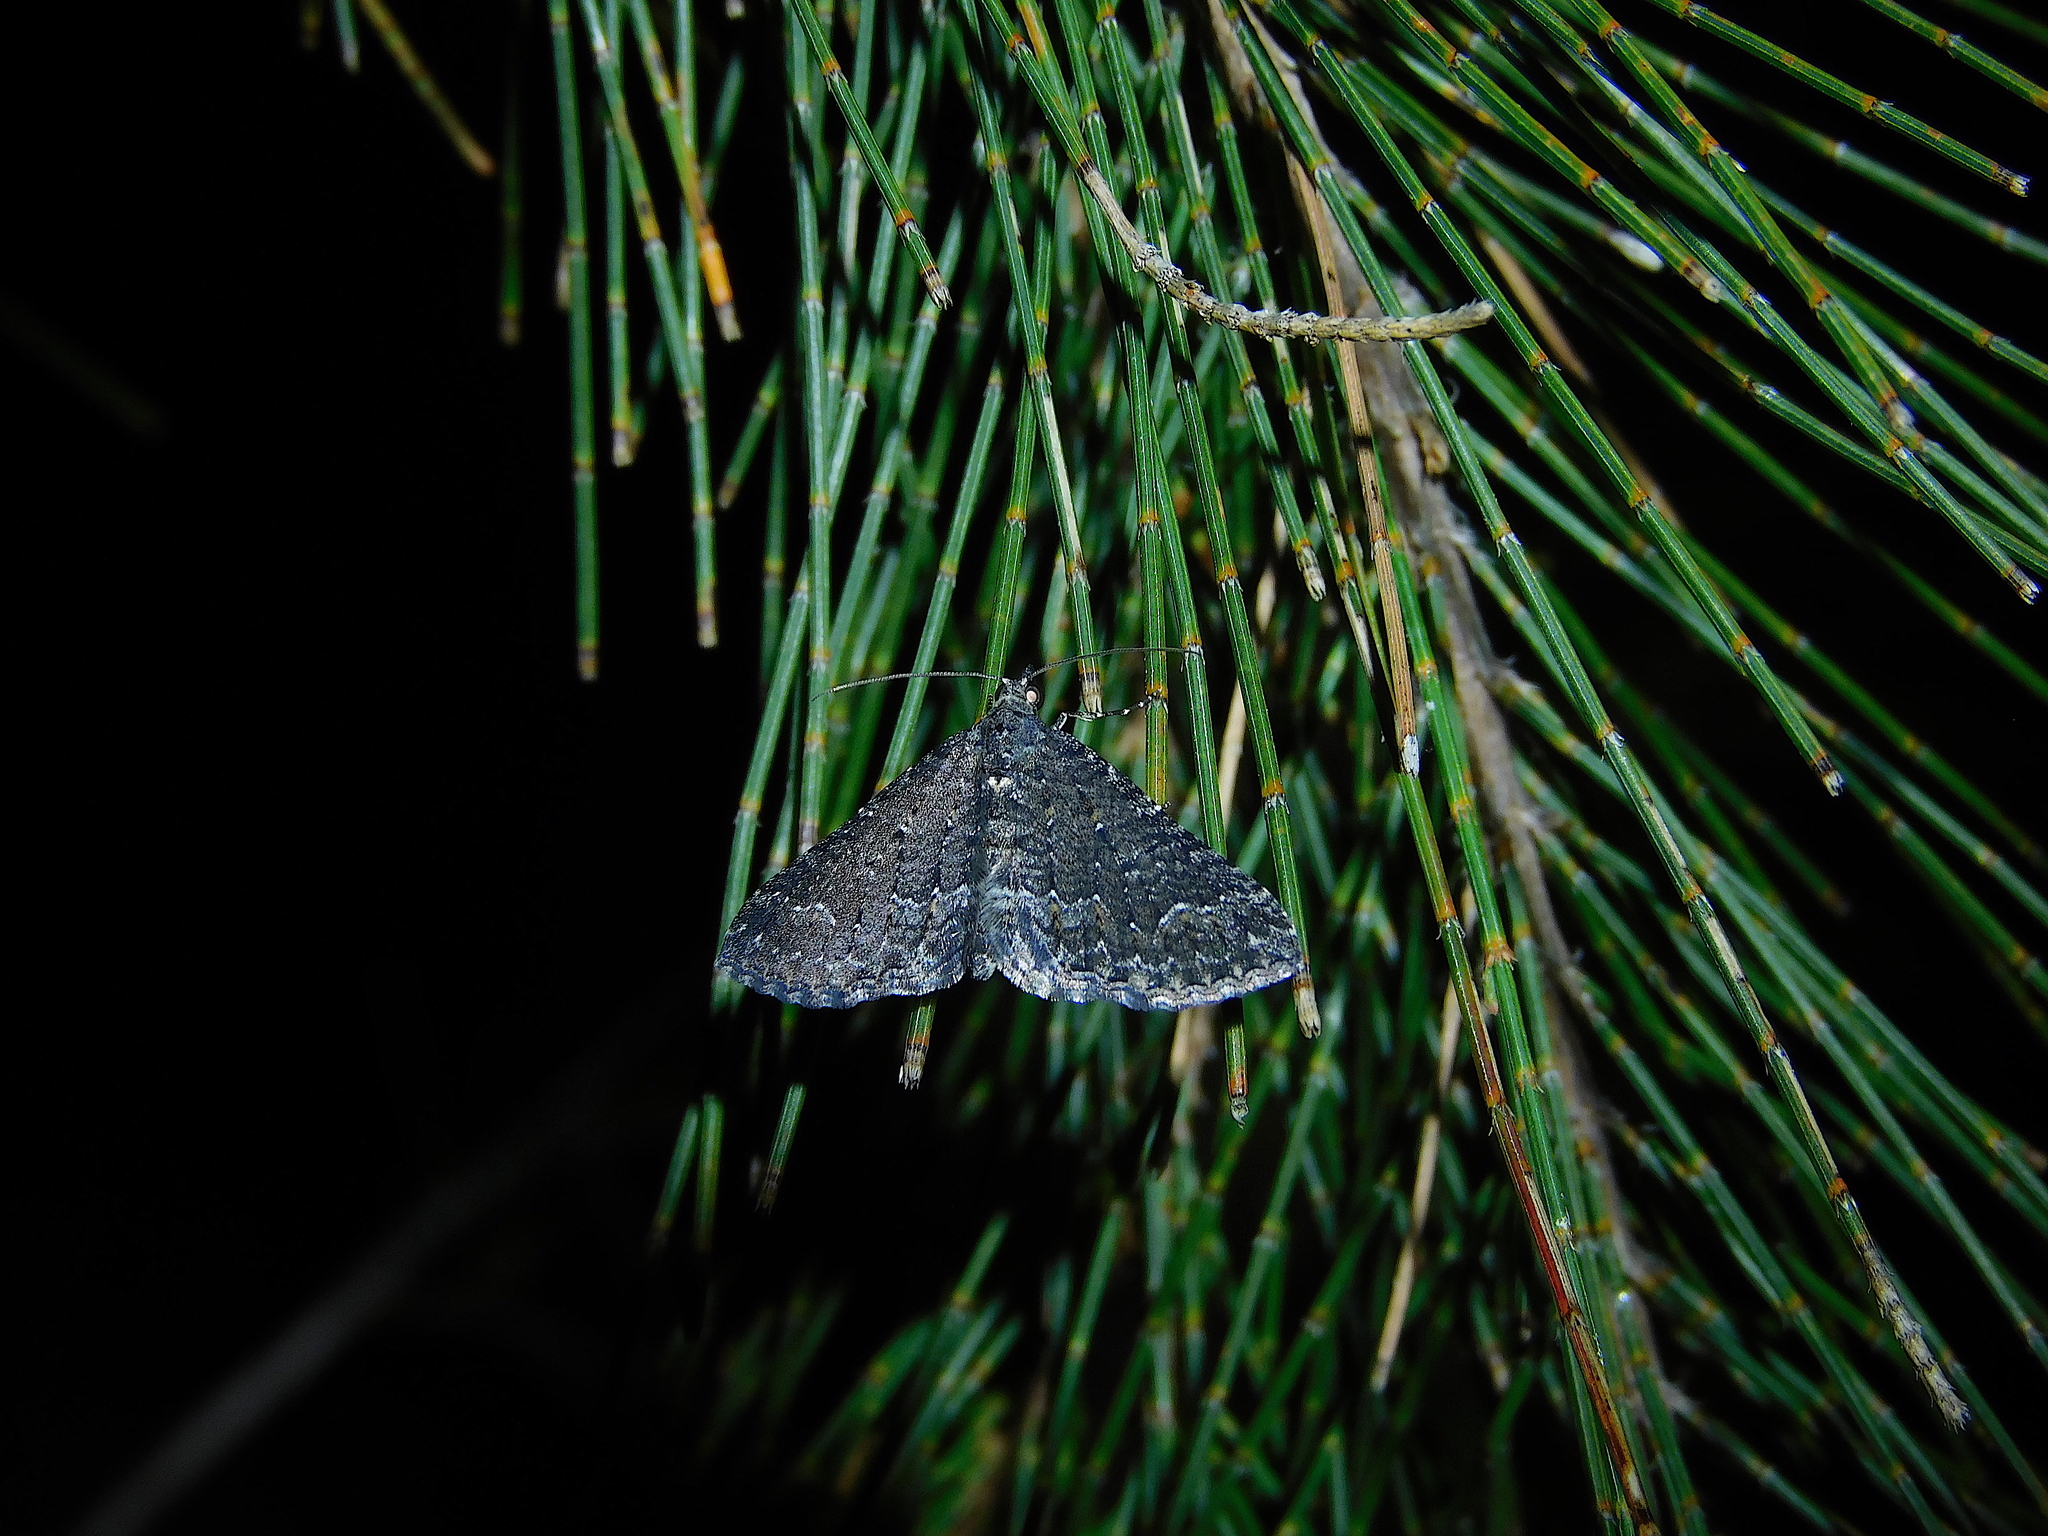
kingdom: Animalia
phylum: Arthropoda
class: Insecta
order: Lepidoptera
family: Geometridae
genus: Chrysolarentia
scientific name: Chrysolarentia trygodes
